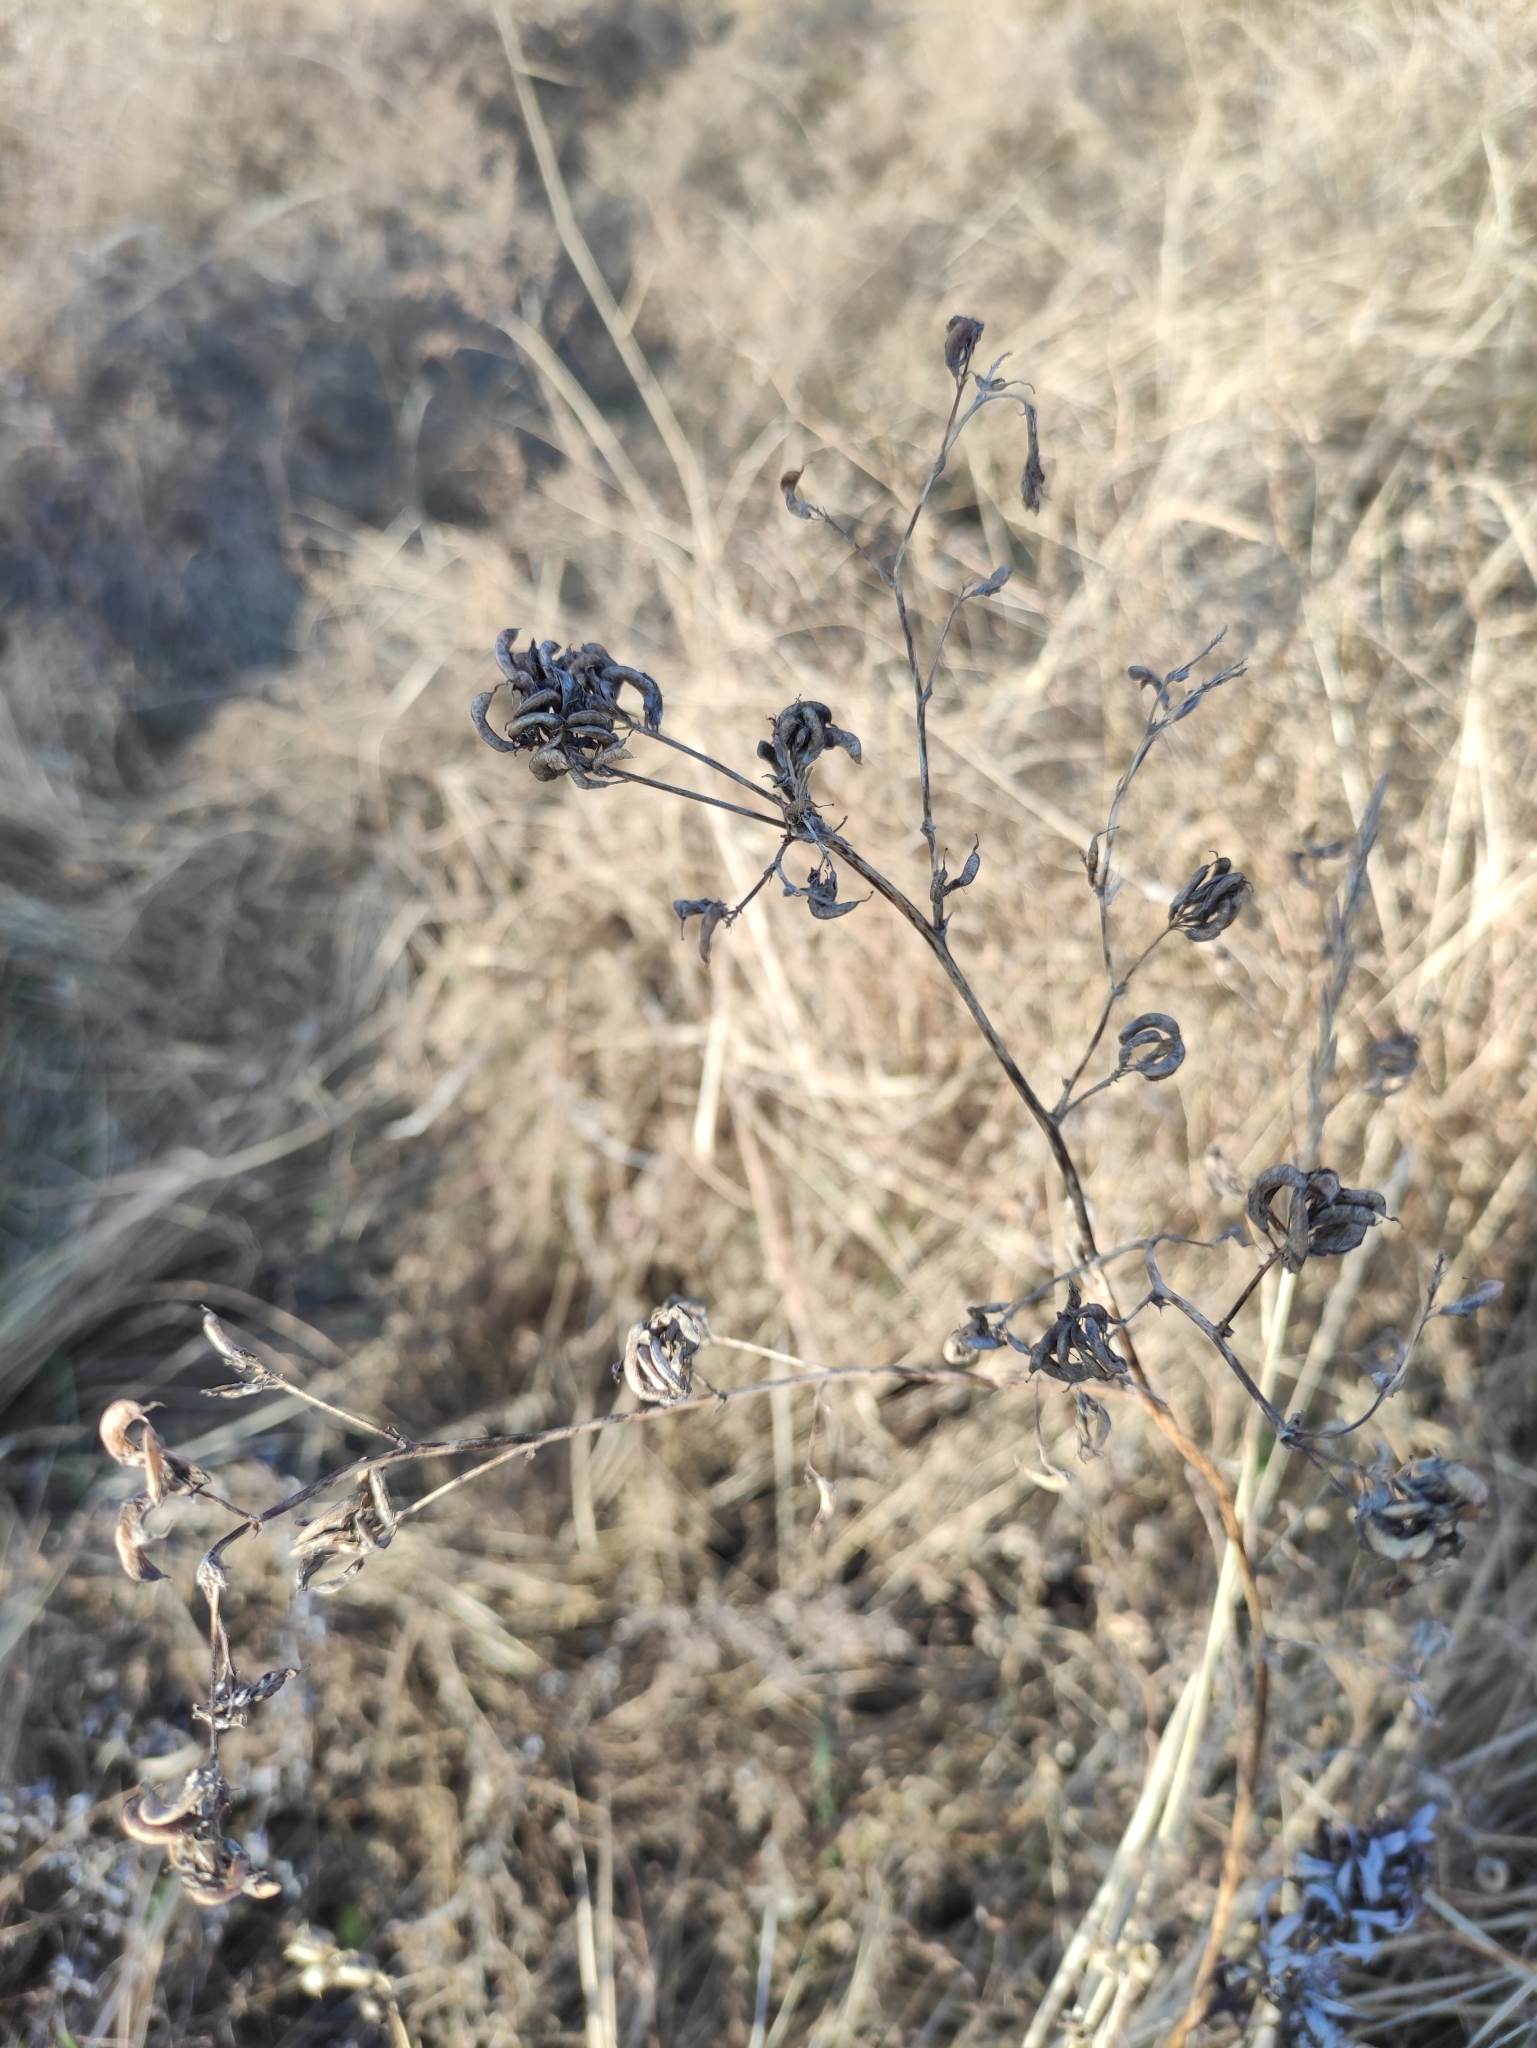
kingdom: Plantae
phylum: Tracheophyta
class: Magnoliopsida
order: Fabales
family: Fabaceae
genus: Medicago
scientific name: Medicago falcata
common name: Sickle medick
